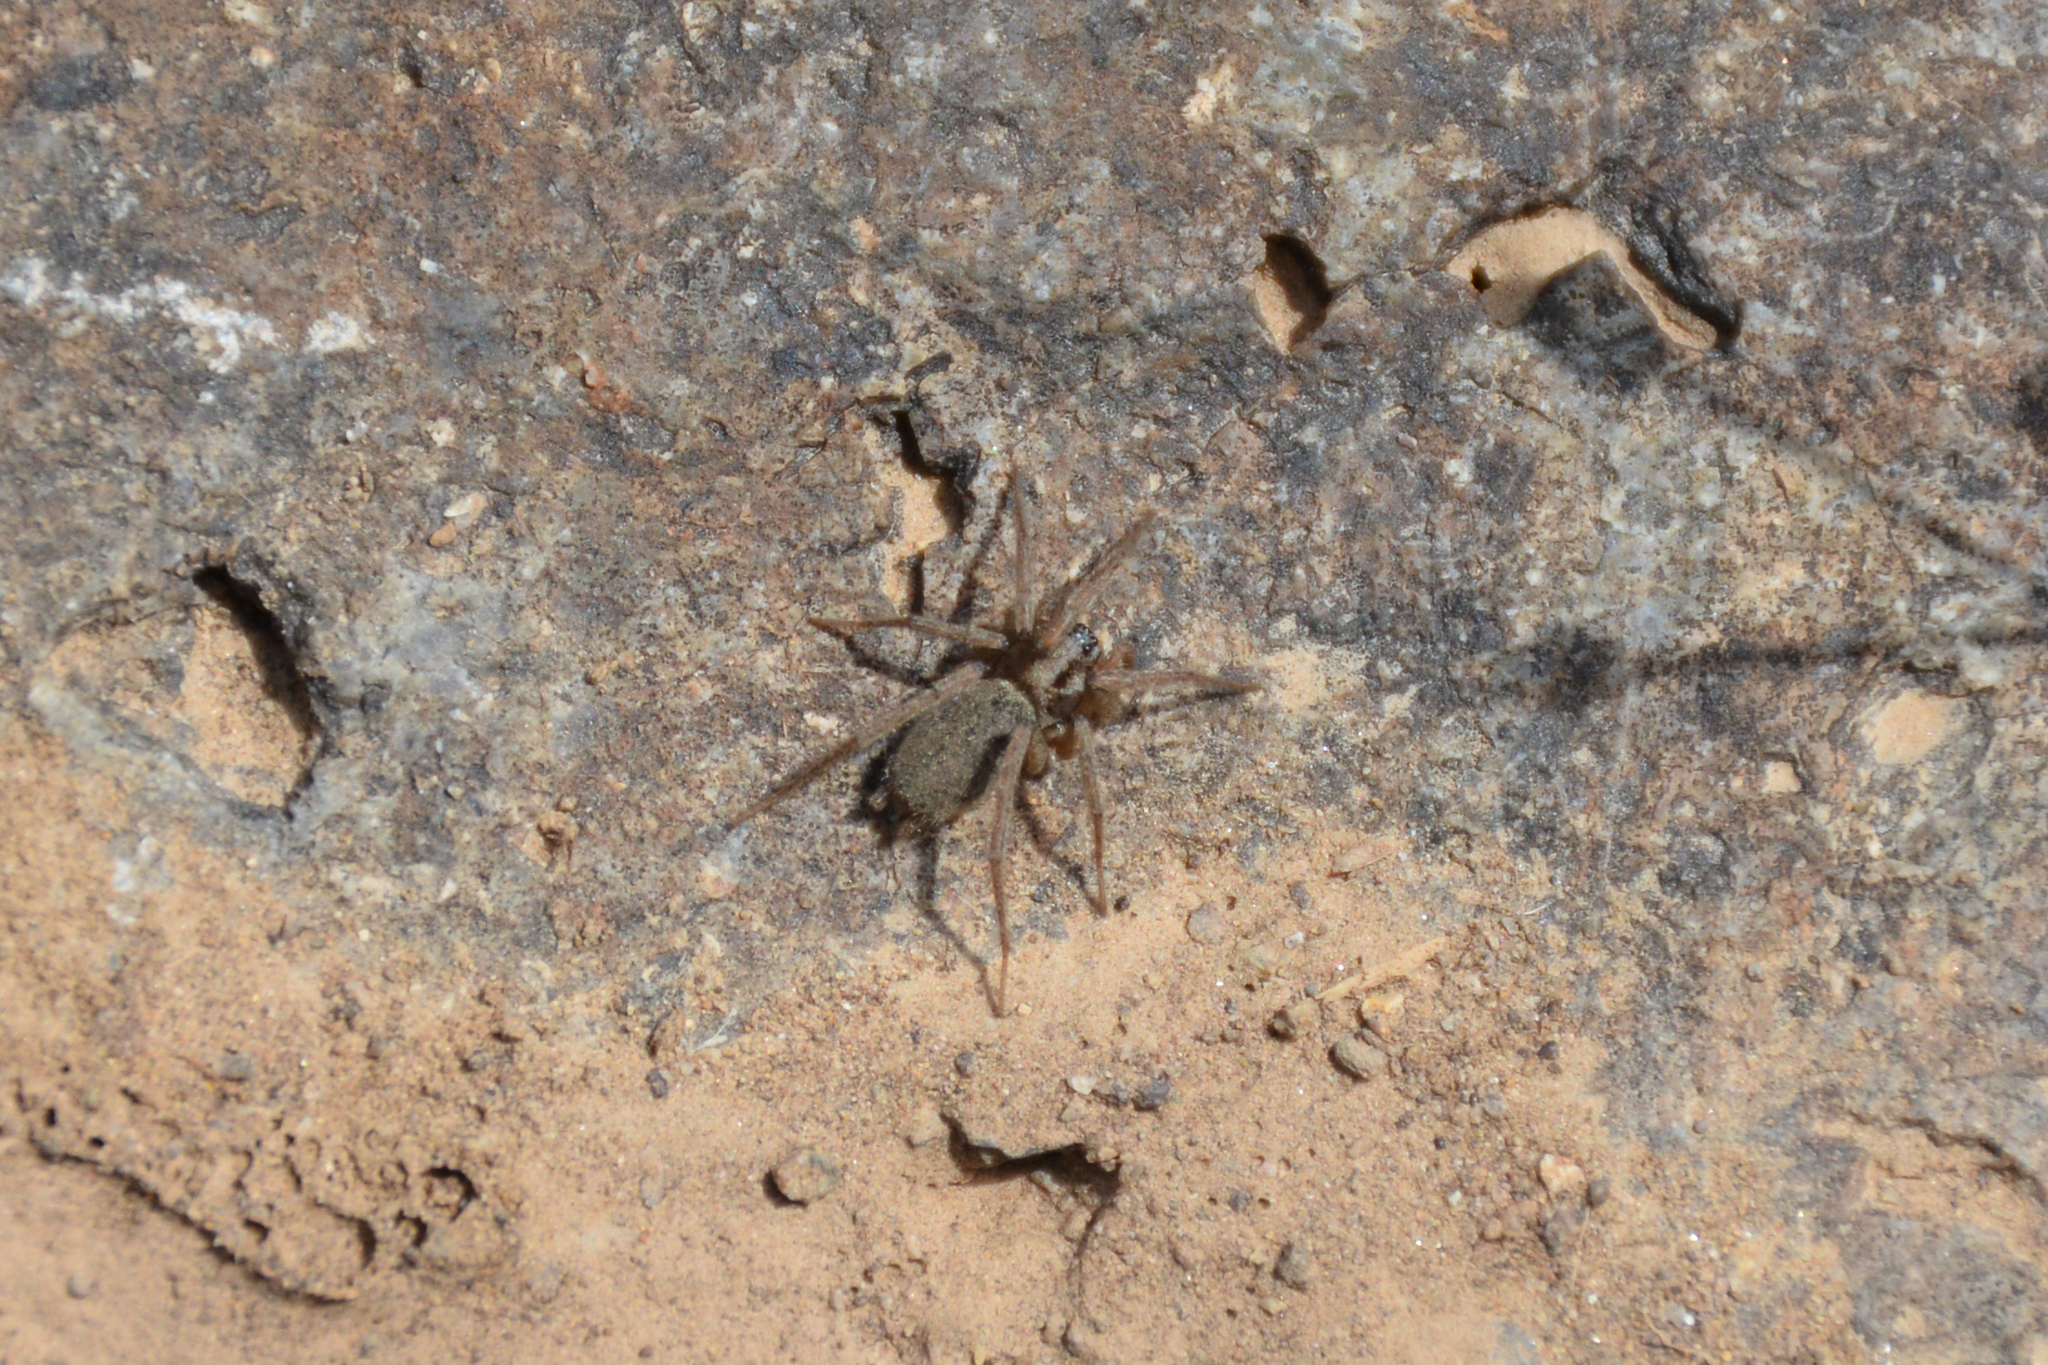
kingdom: Animalia
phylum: Arthropoda
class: Arachnida
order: Araneae
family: Gnaphosidae
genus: Minosia
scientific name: Minosia simeonica
